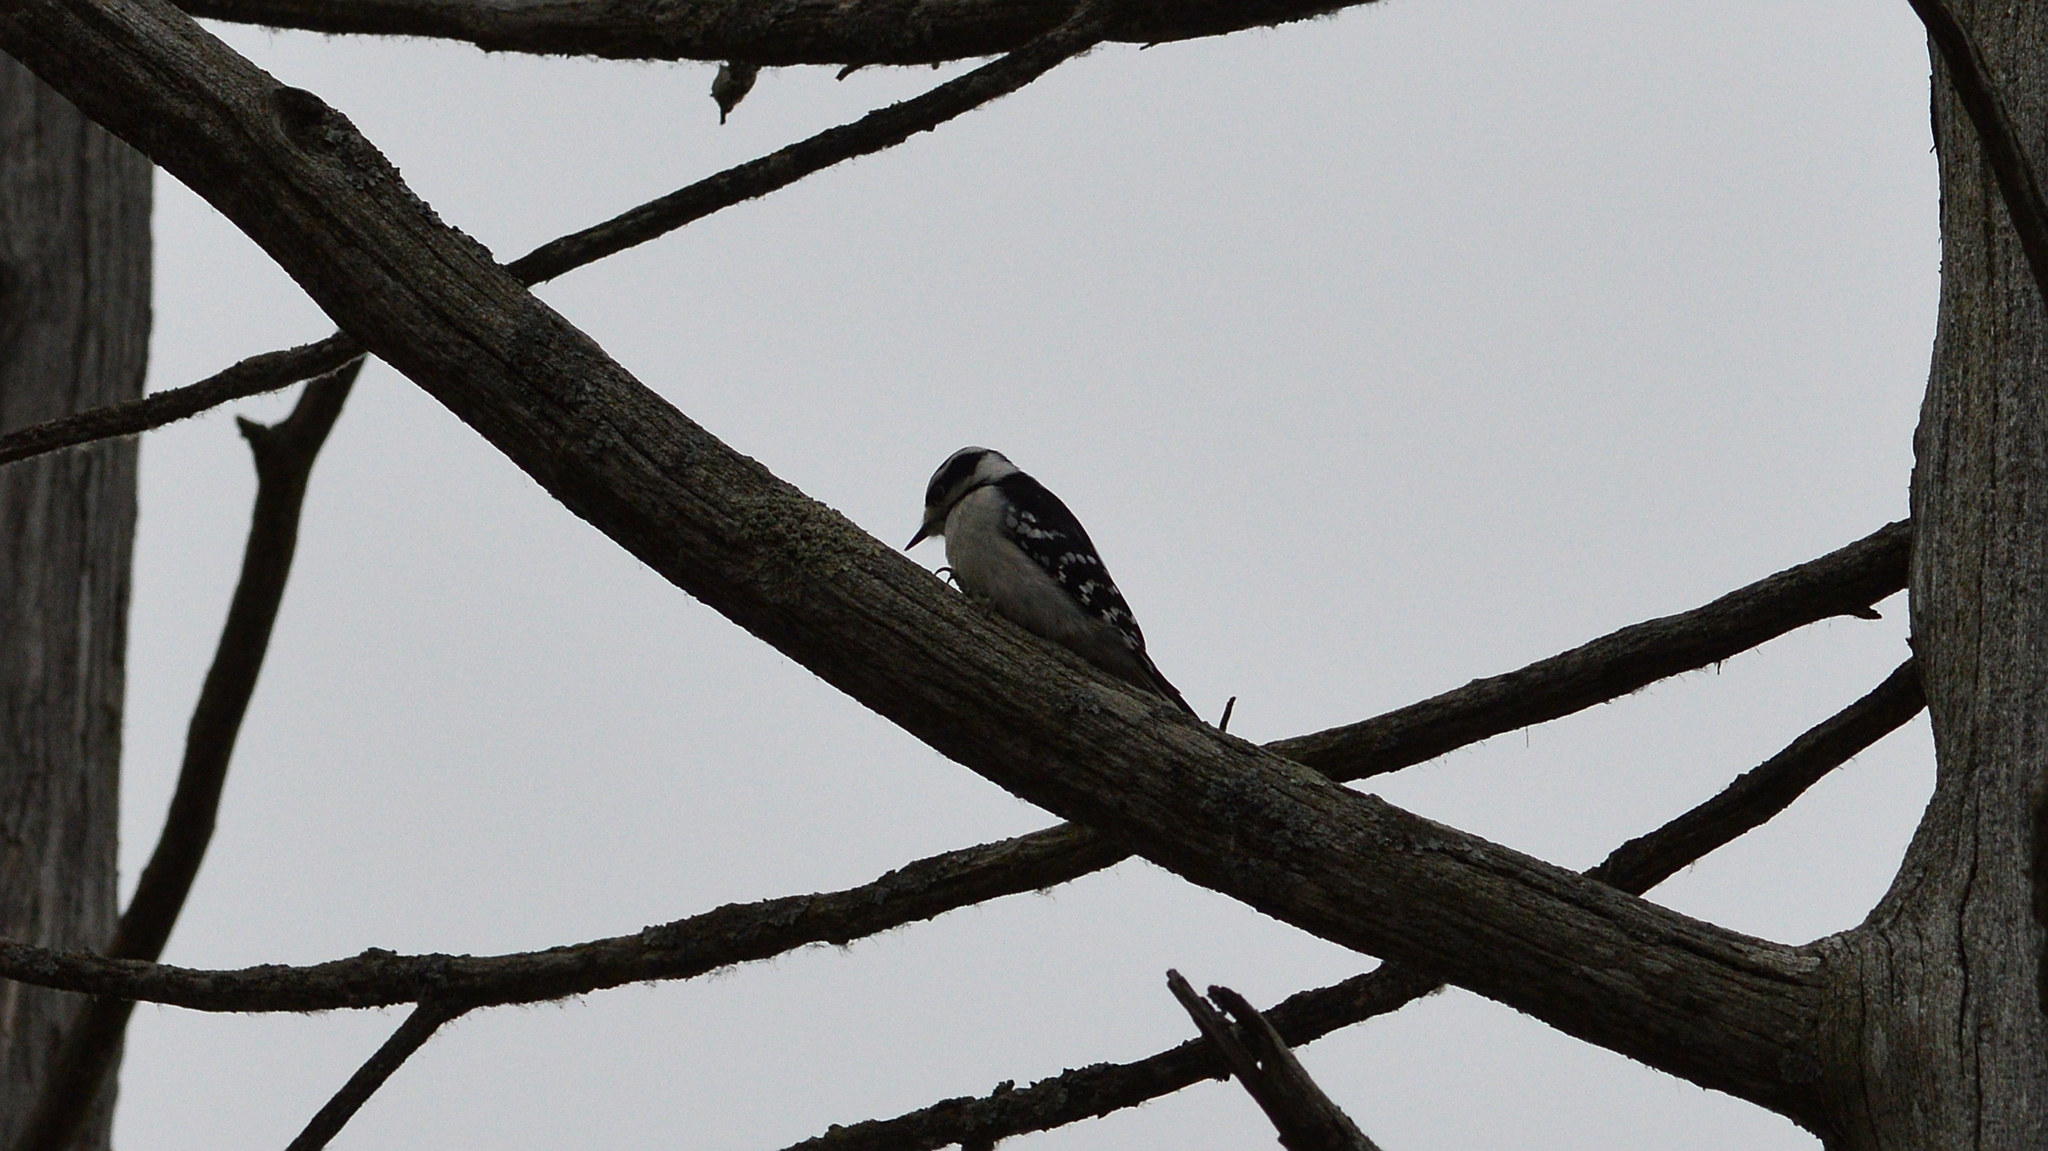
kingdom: Animalia
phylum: Chordata
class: Aves
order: Piciformes
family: Picidae
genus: Dryobates
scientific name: Dryobates pubescens
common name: Downy woodpecker
